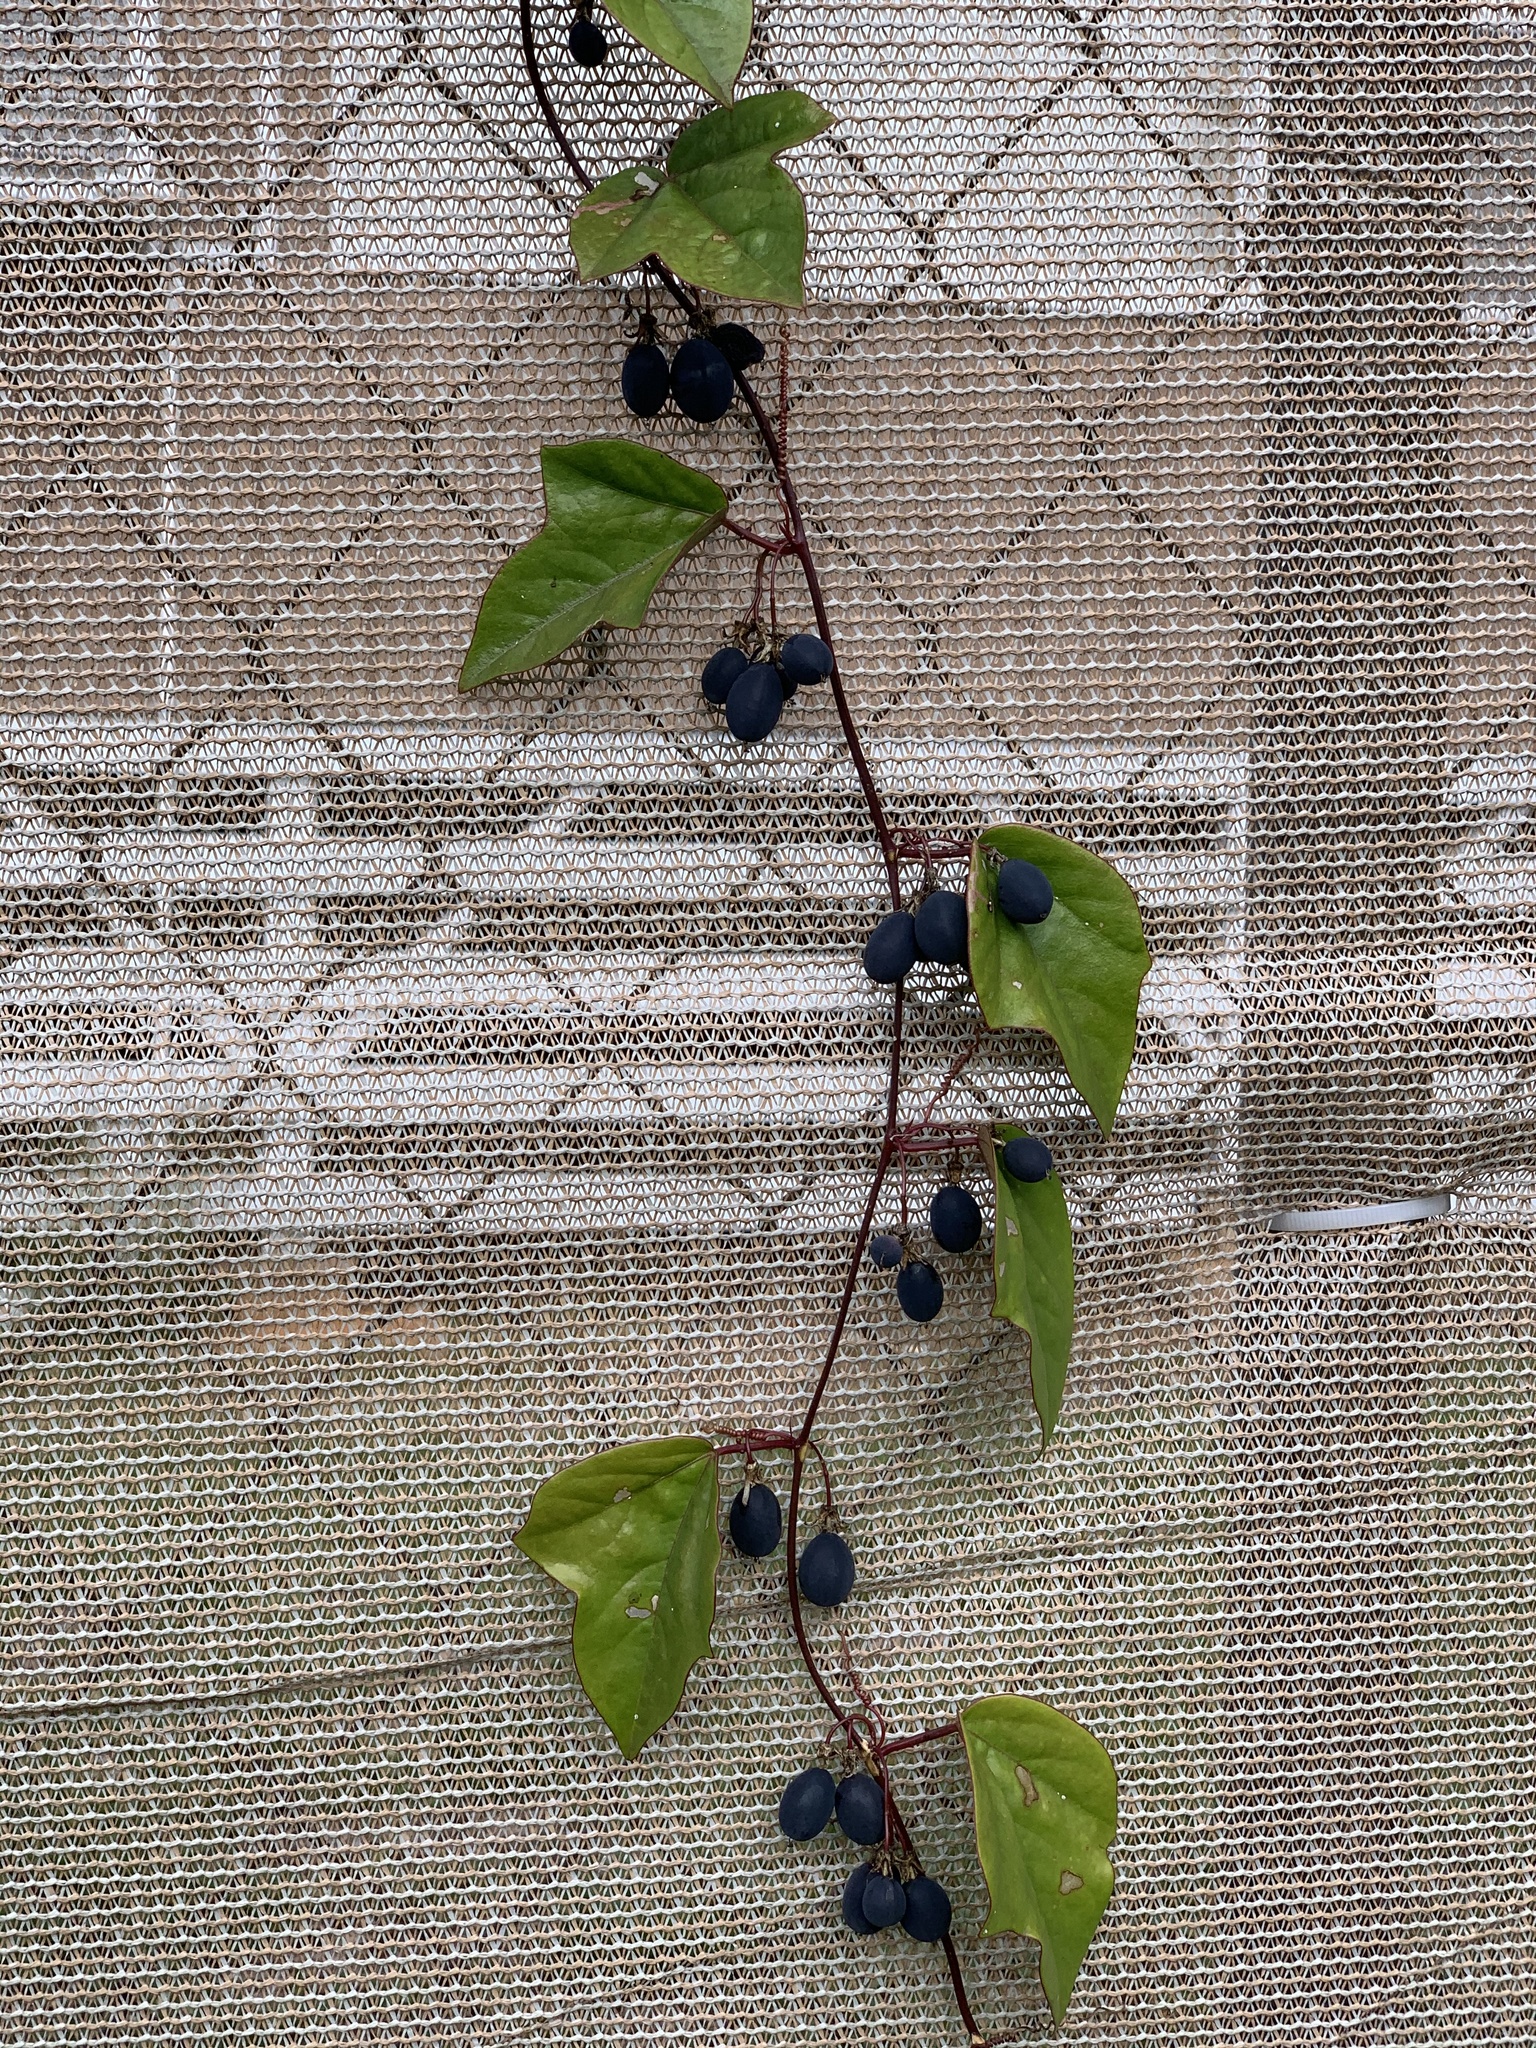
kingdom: Plantae
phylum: Tracheophyta
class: Magnoliopsida
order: Malpighiales
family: Passifloraceae
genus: Passiflora
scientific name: Passiflora pallida
